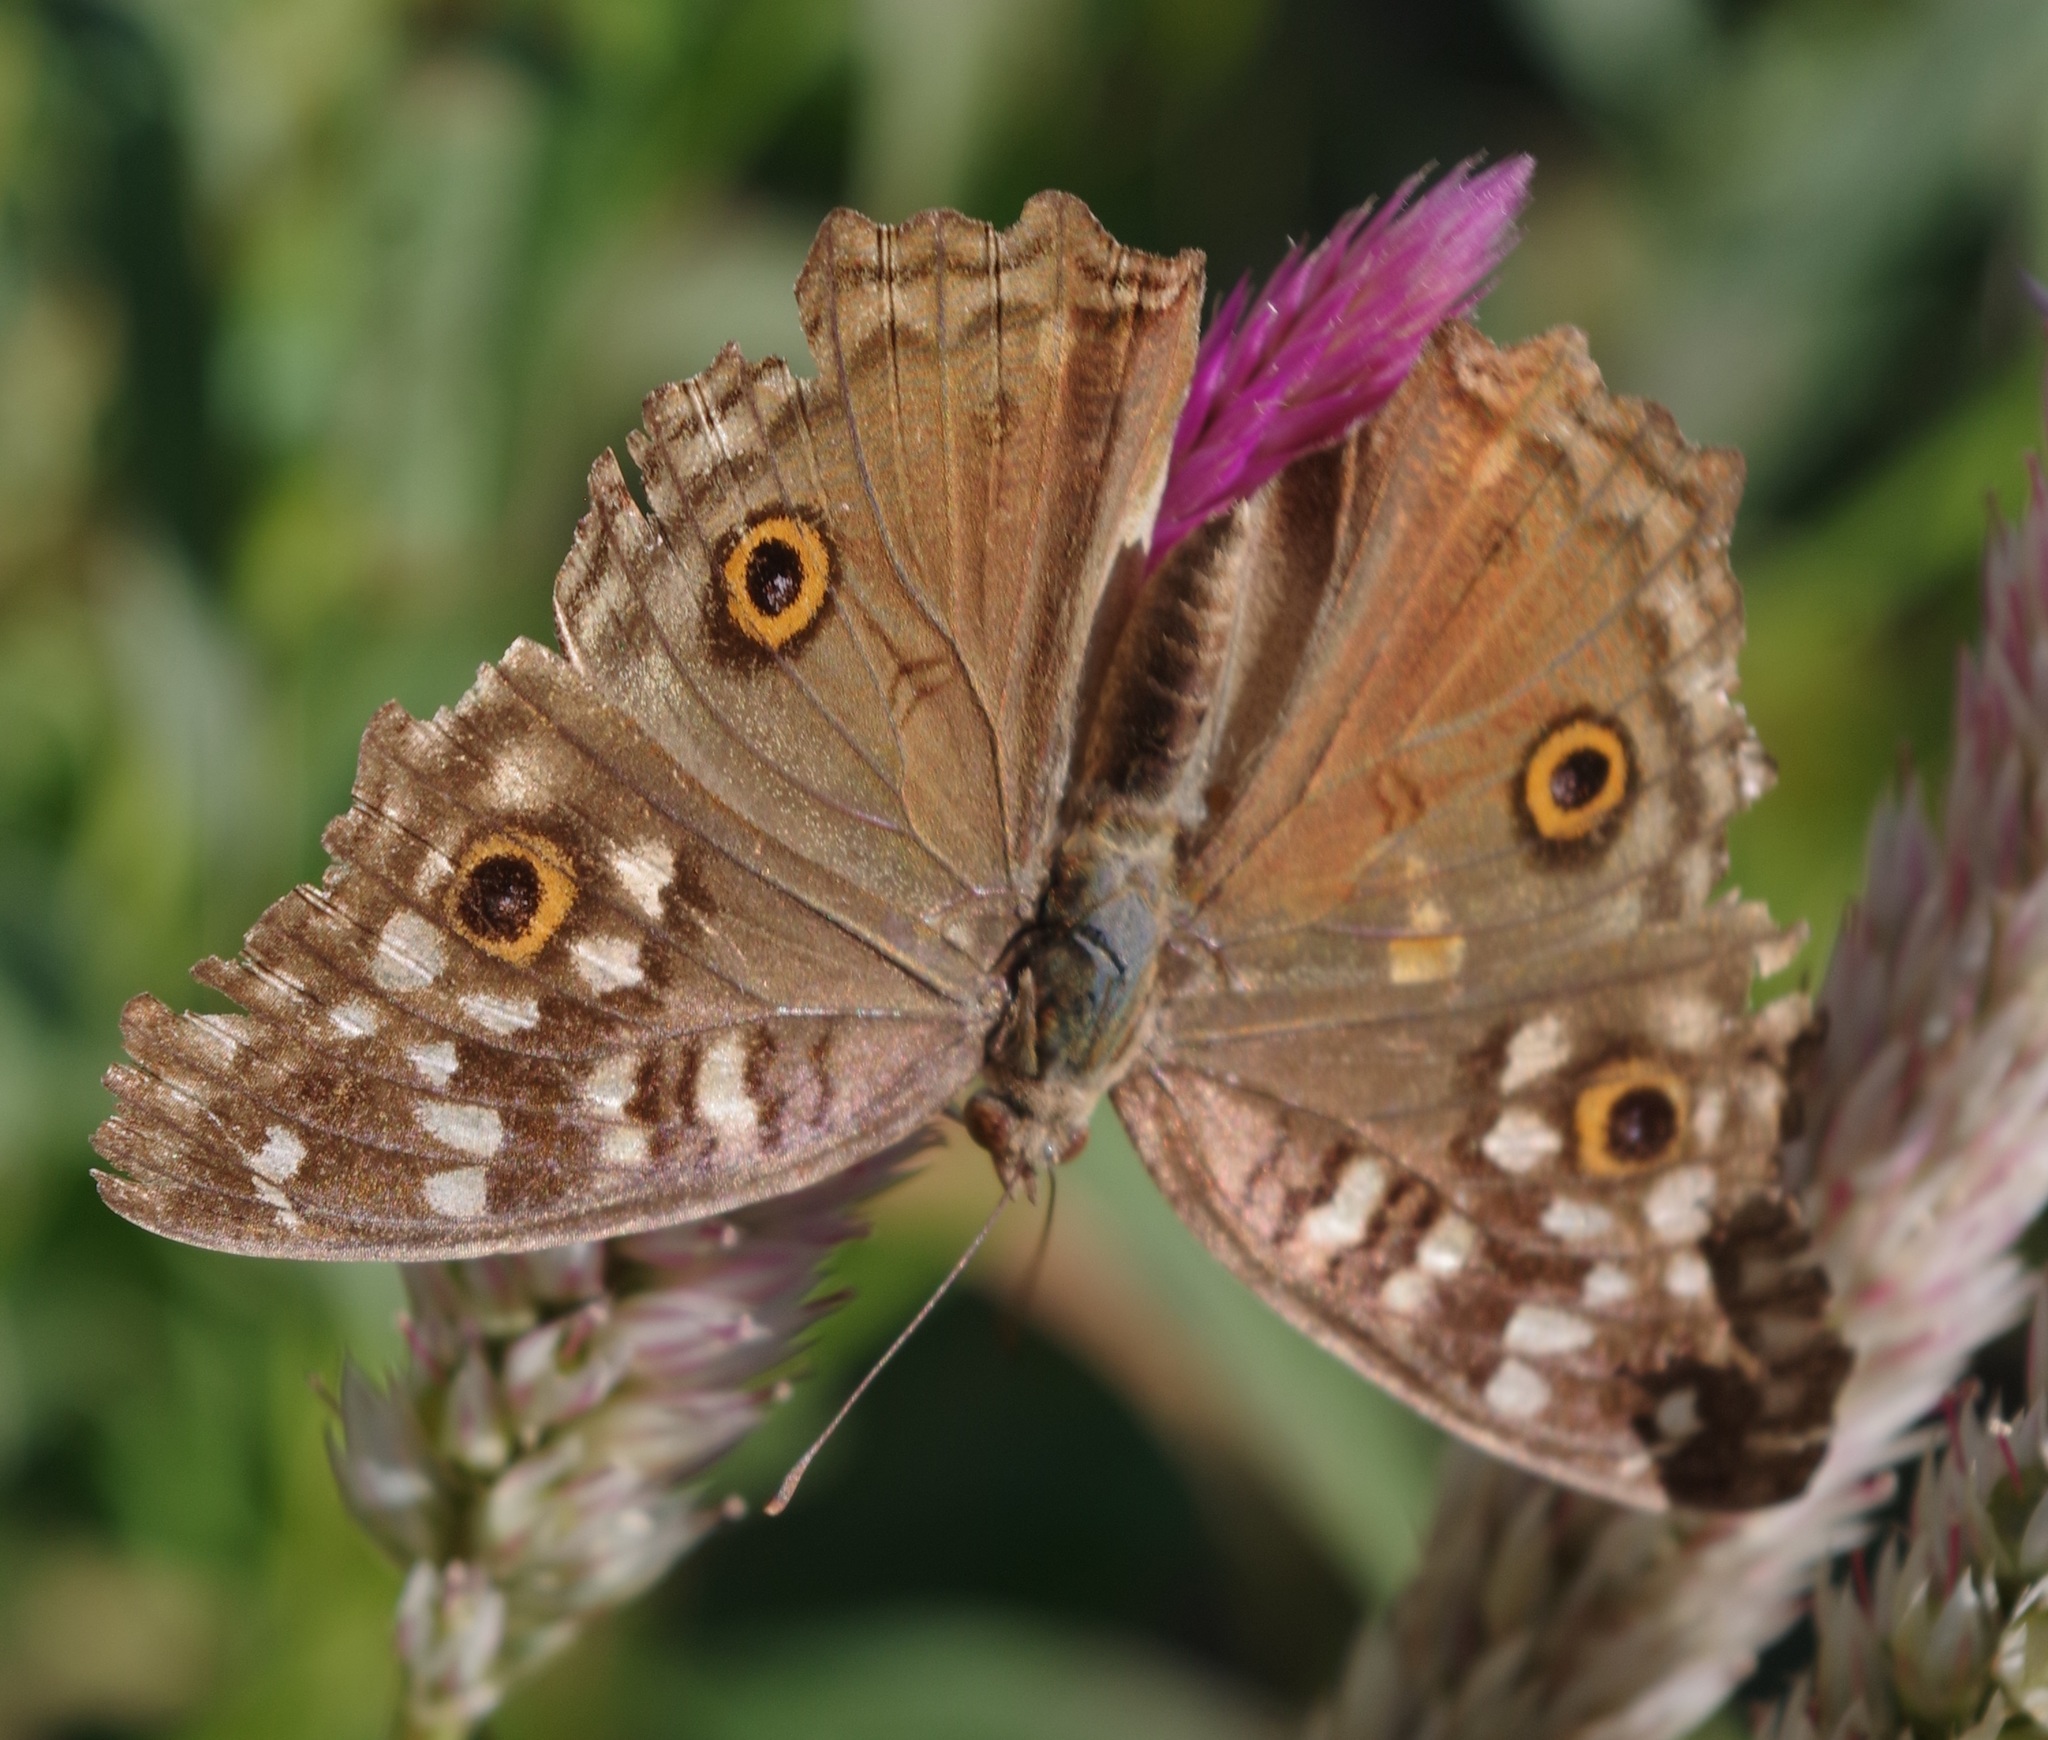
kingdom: Animalia
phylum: Arthropoda
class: Insecta
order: Lepidoptera
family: Nymphalidae
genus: Junonia
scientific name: Junonia lemonias
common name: Lemon pansy
